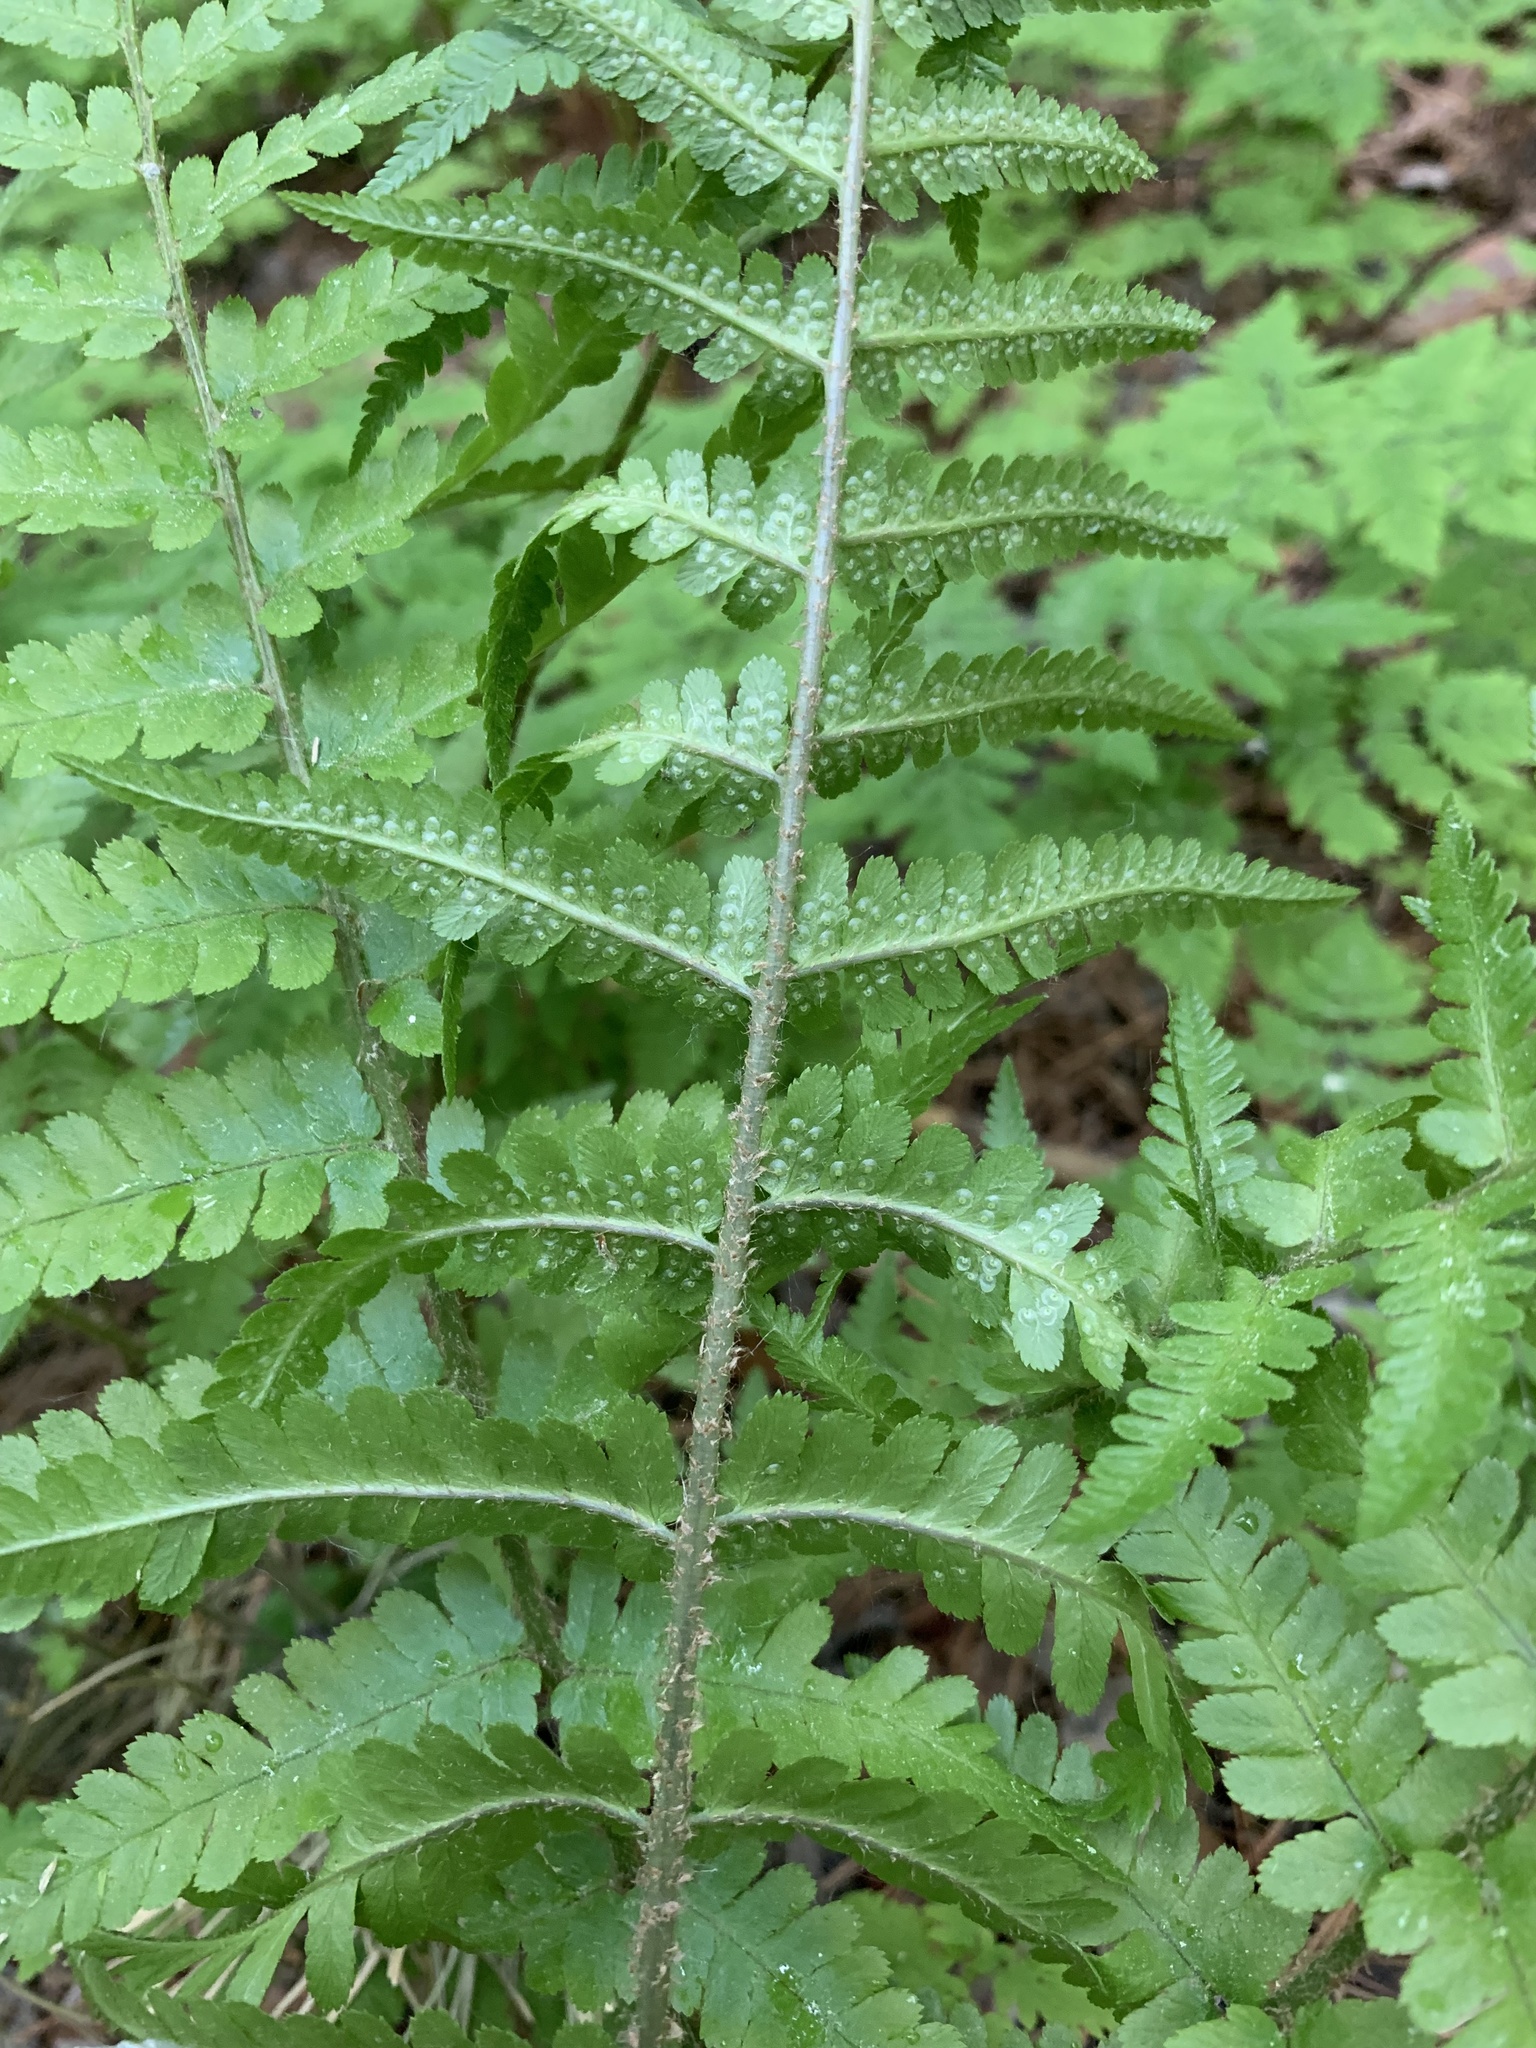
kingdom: Plantae
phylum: Tracheophyta
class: Polypodiopsida
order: Polypodiales
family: Dryopteridaceae
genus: Dryopteris
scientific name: Dryopteris filix-mas
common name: Male fern
